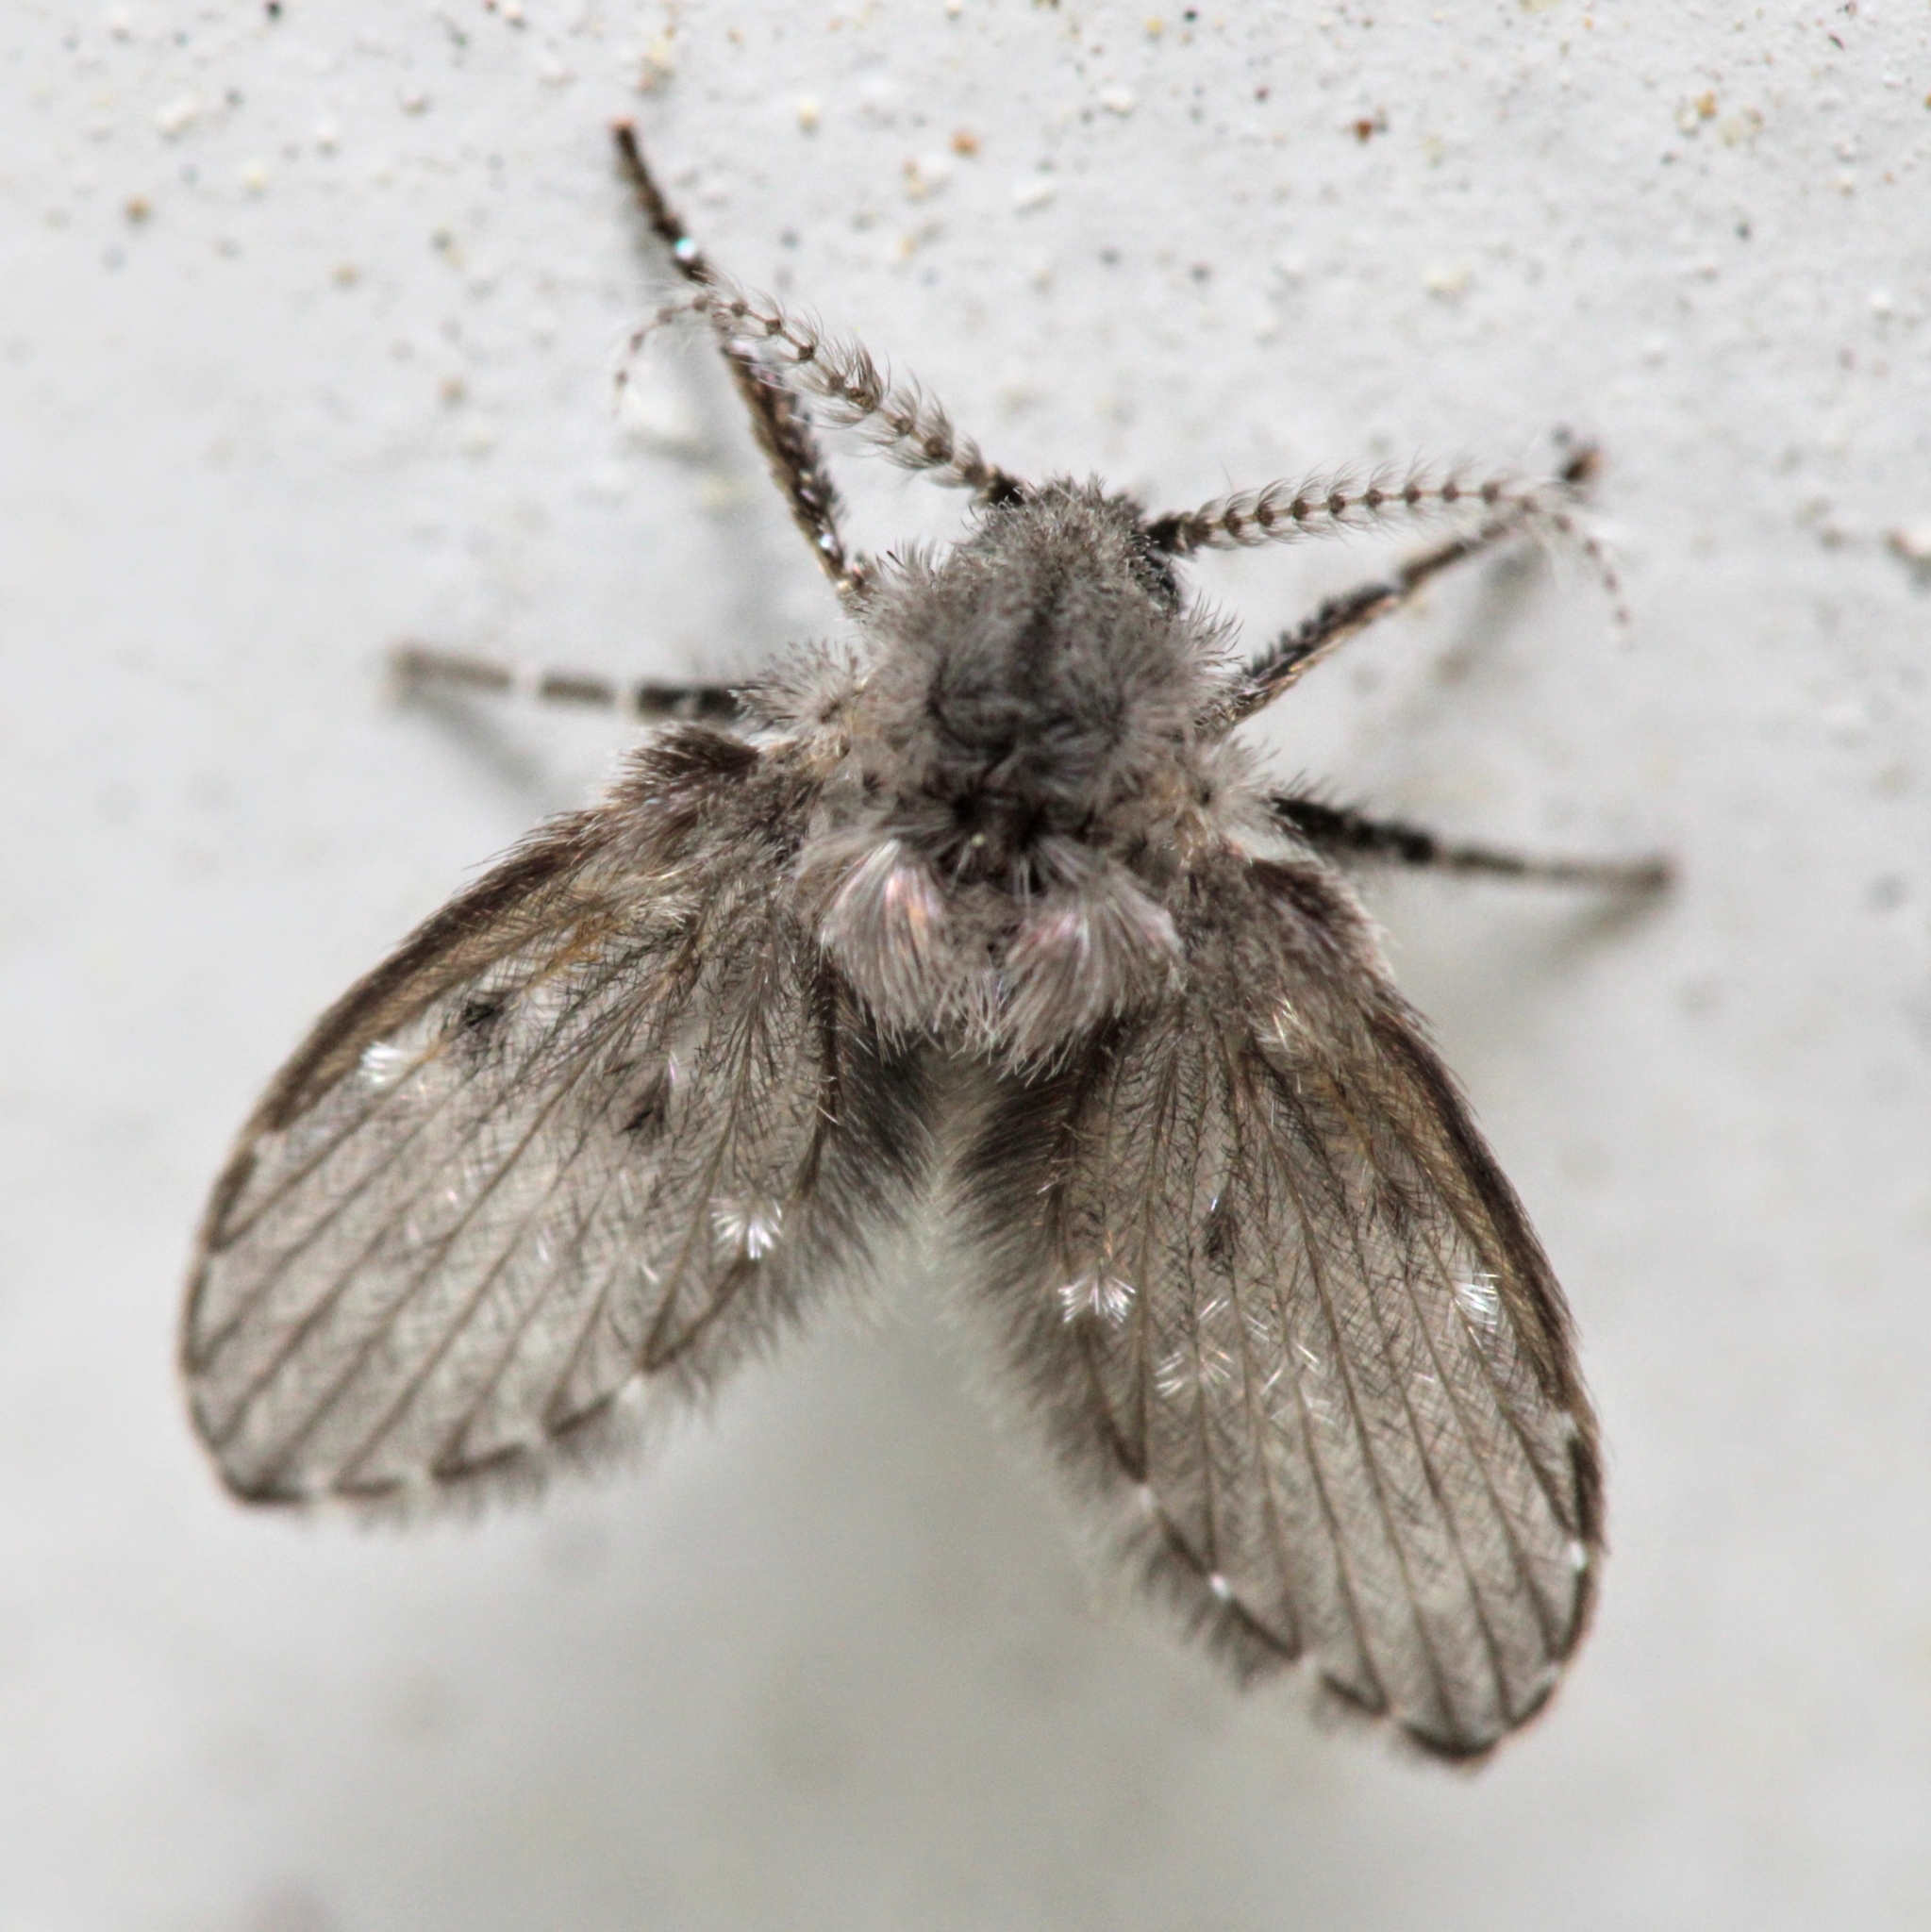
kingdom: Animalia
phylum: Arthropoda
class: Insecta
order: Diptera
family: Psychodidae
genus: Clogmia
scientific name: Clogmia albipunctatus
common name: White-spotted moth fly
